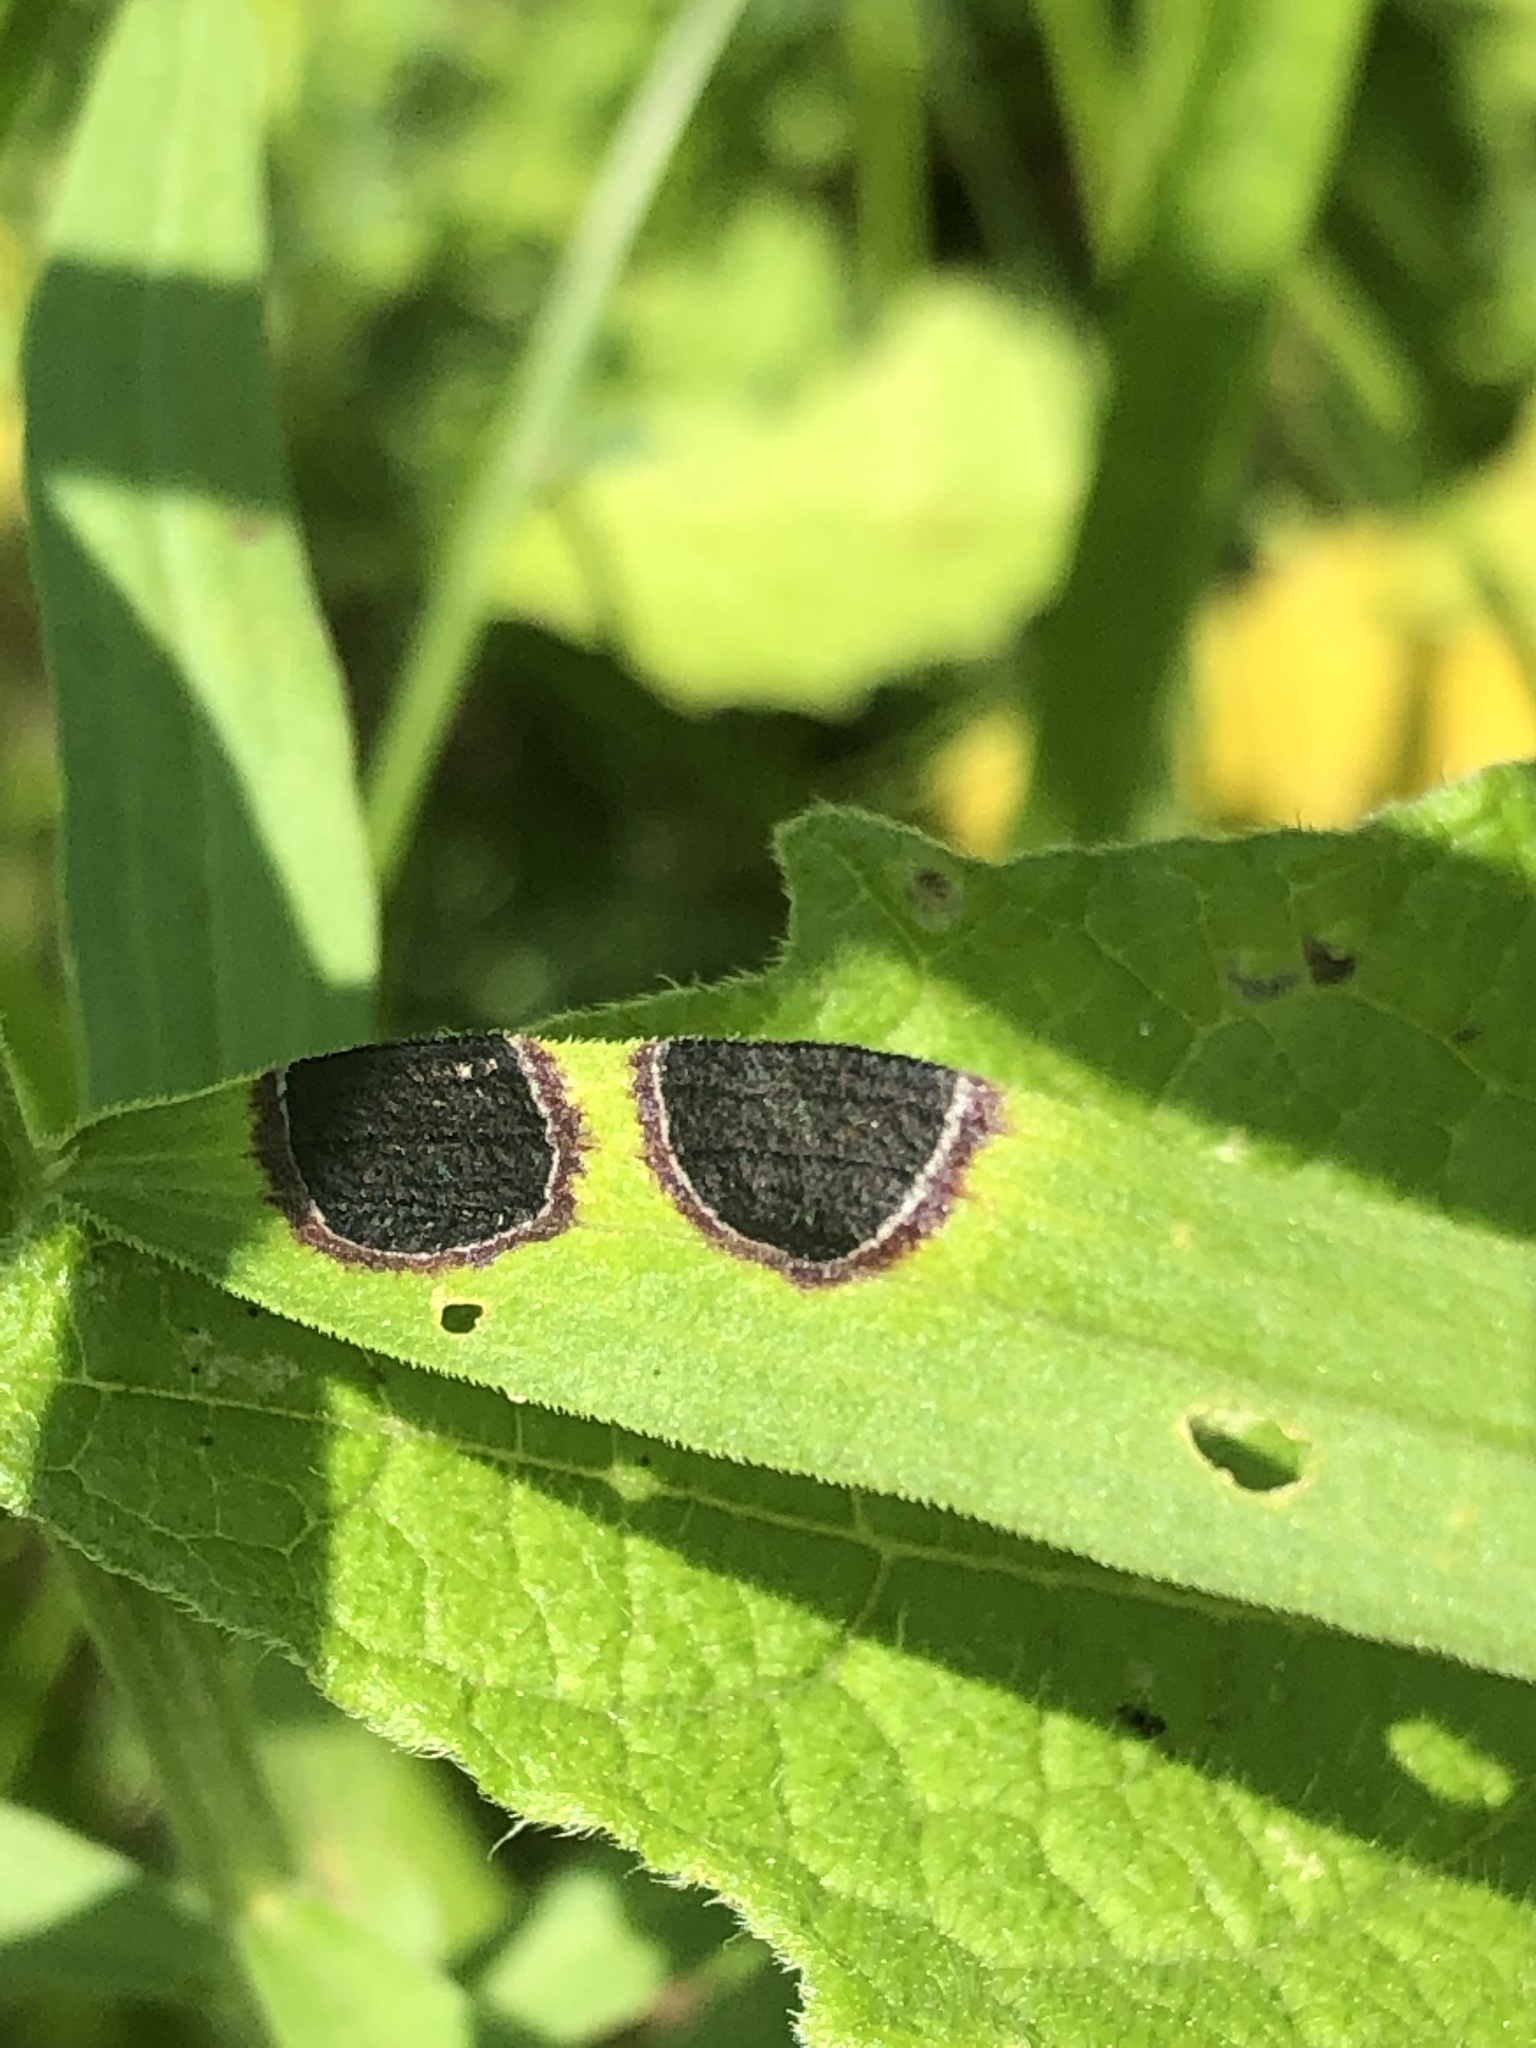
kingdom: Animalia
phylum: Arthropoda
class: Insecta
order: Diptera
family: Cecidomyiidae
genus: Asteromyia
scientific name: Asteromyia euthamiae
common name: Euthamia leaf gall midge
